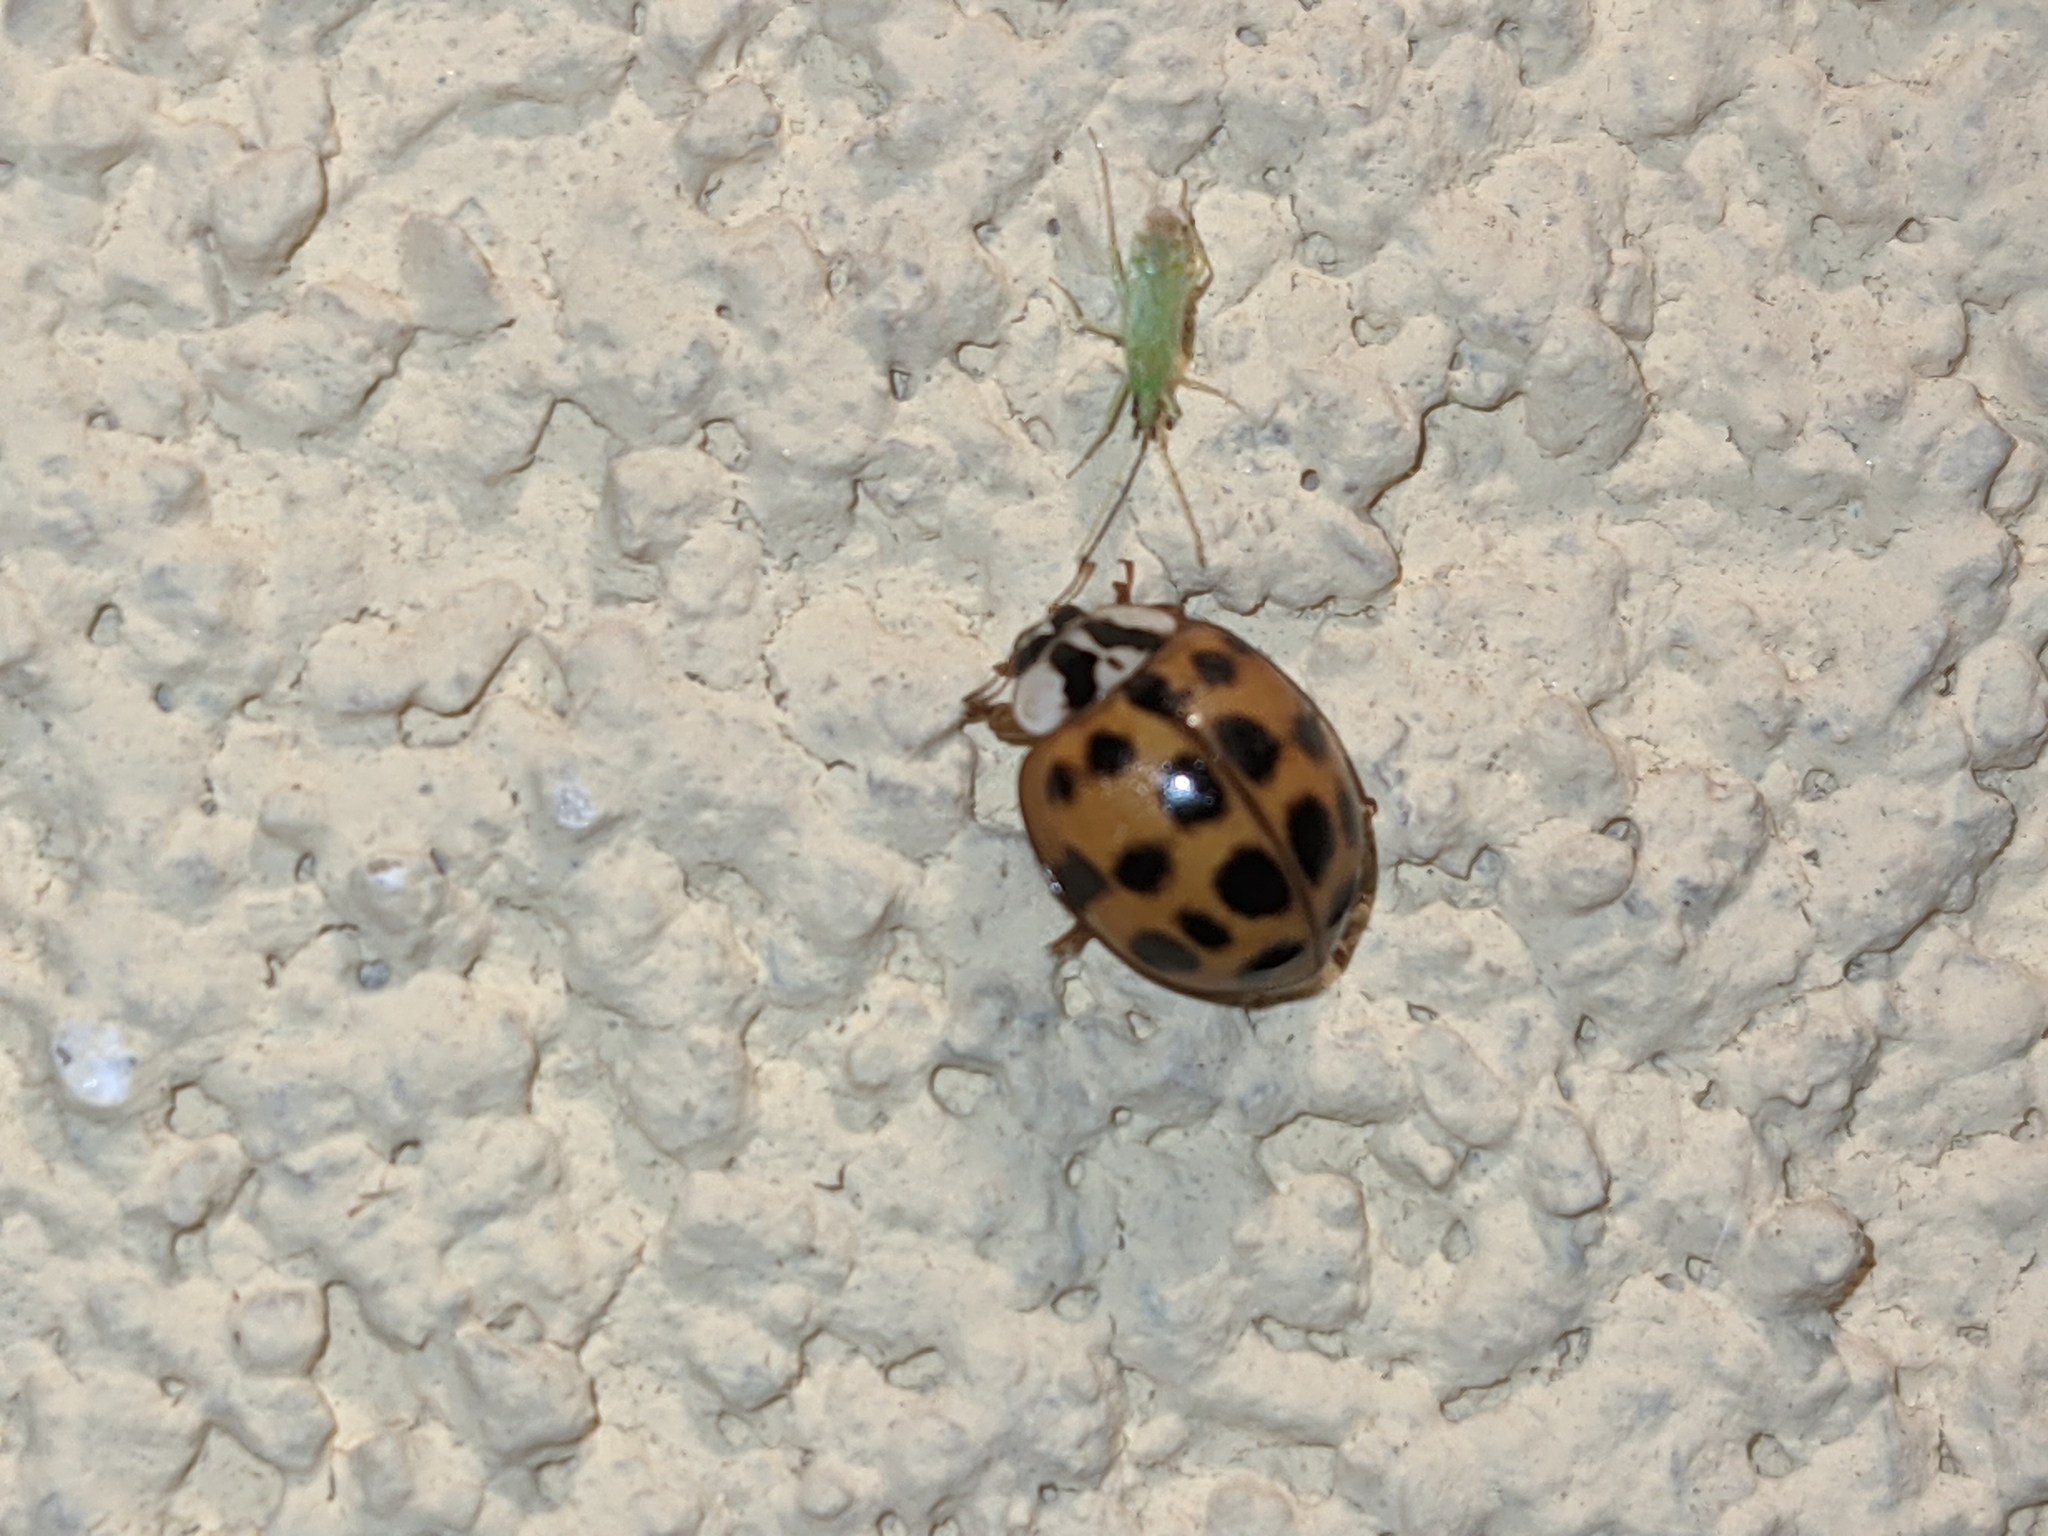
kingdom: Animalia
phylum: Arthropoda
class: Insecta
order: Coleoptera
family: Coccinellidae
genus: Harmonia
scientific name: Harmonia axyridis
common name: Harlequin ladybird
